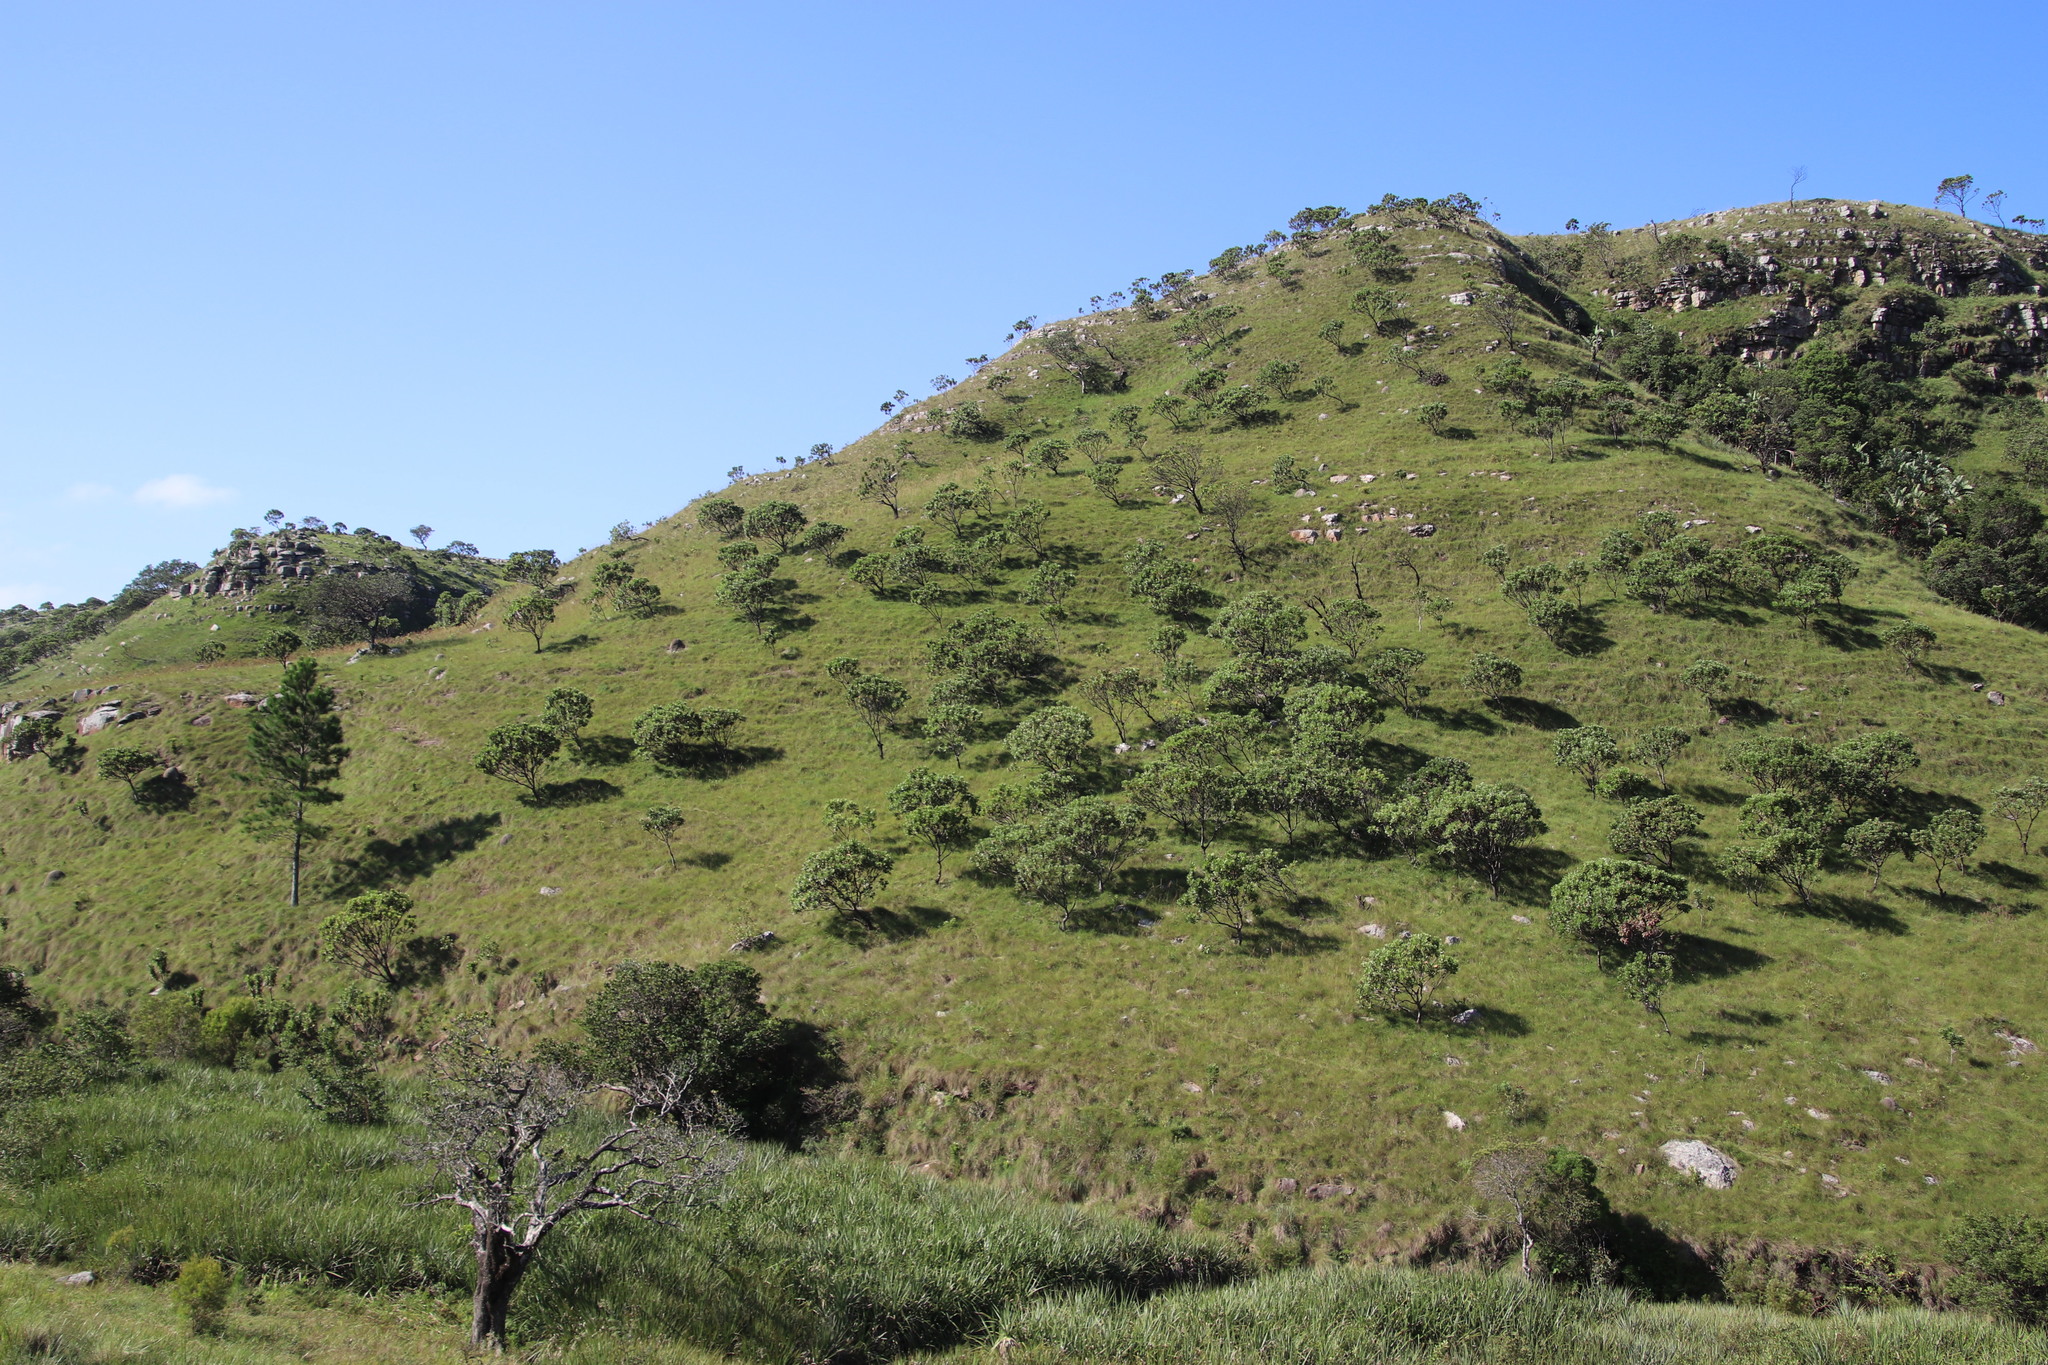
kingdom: Plantae
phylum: Tracheophyta
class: Magnoliopsida
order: Proteales
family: Proteaceae
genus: Protea
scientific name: Protea roupelliae
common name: Silver sugarbush
